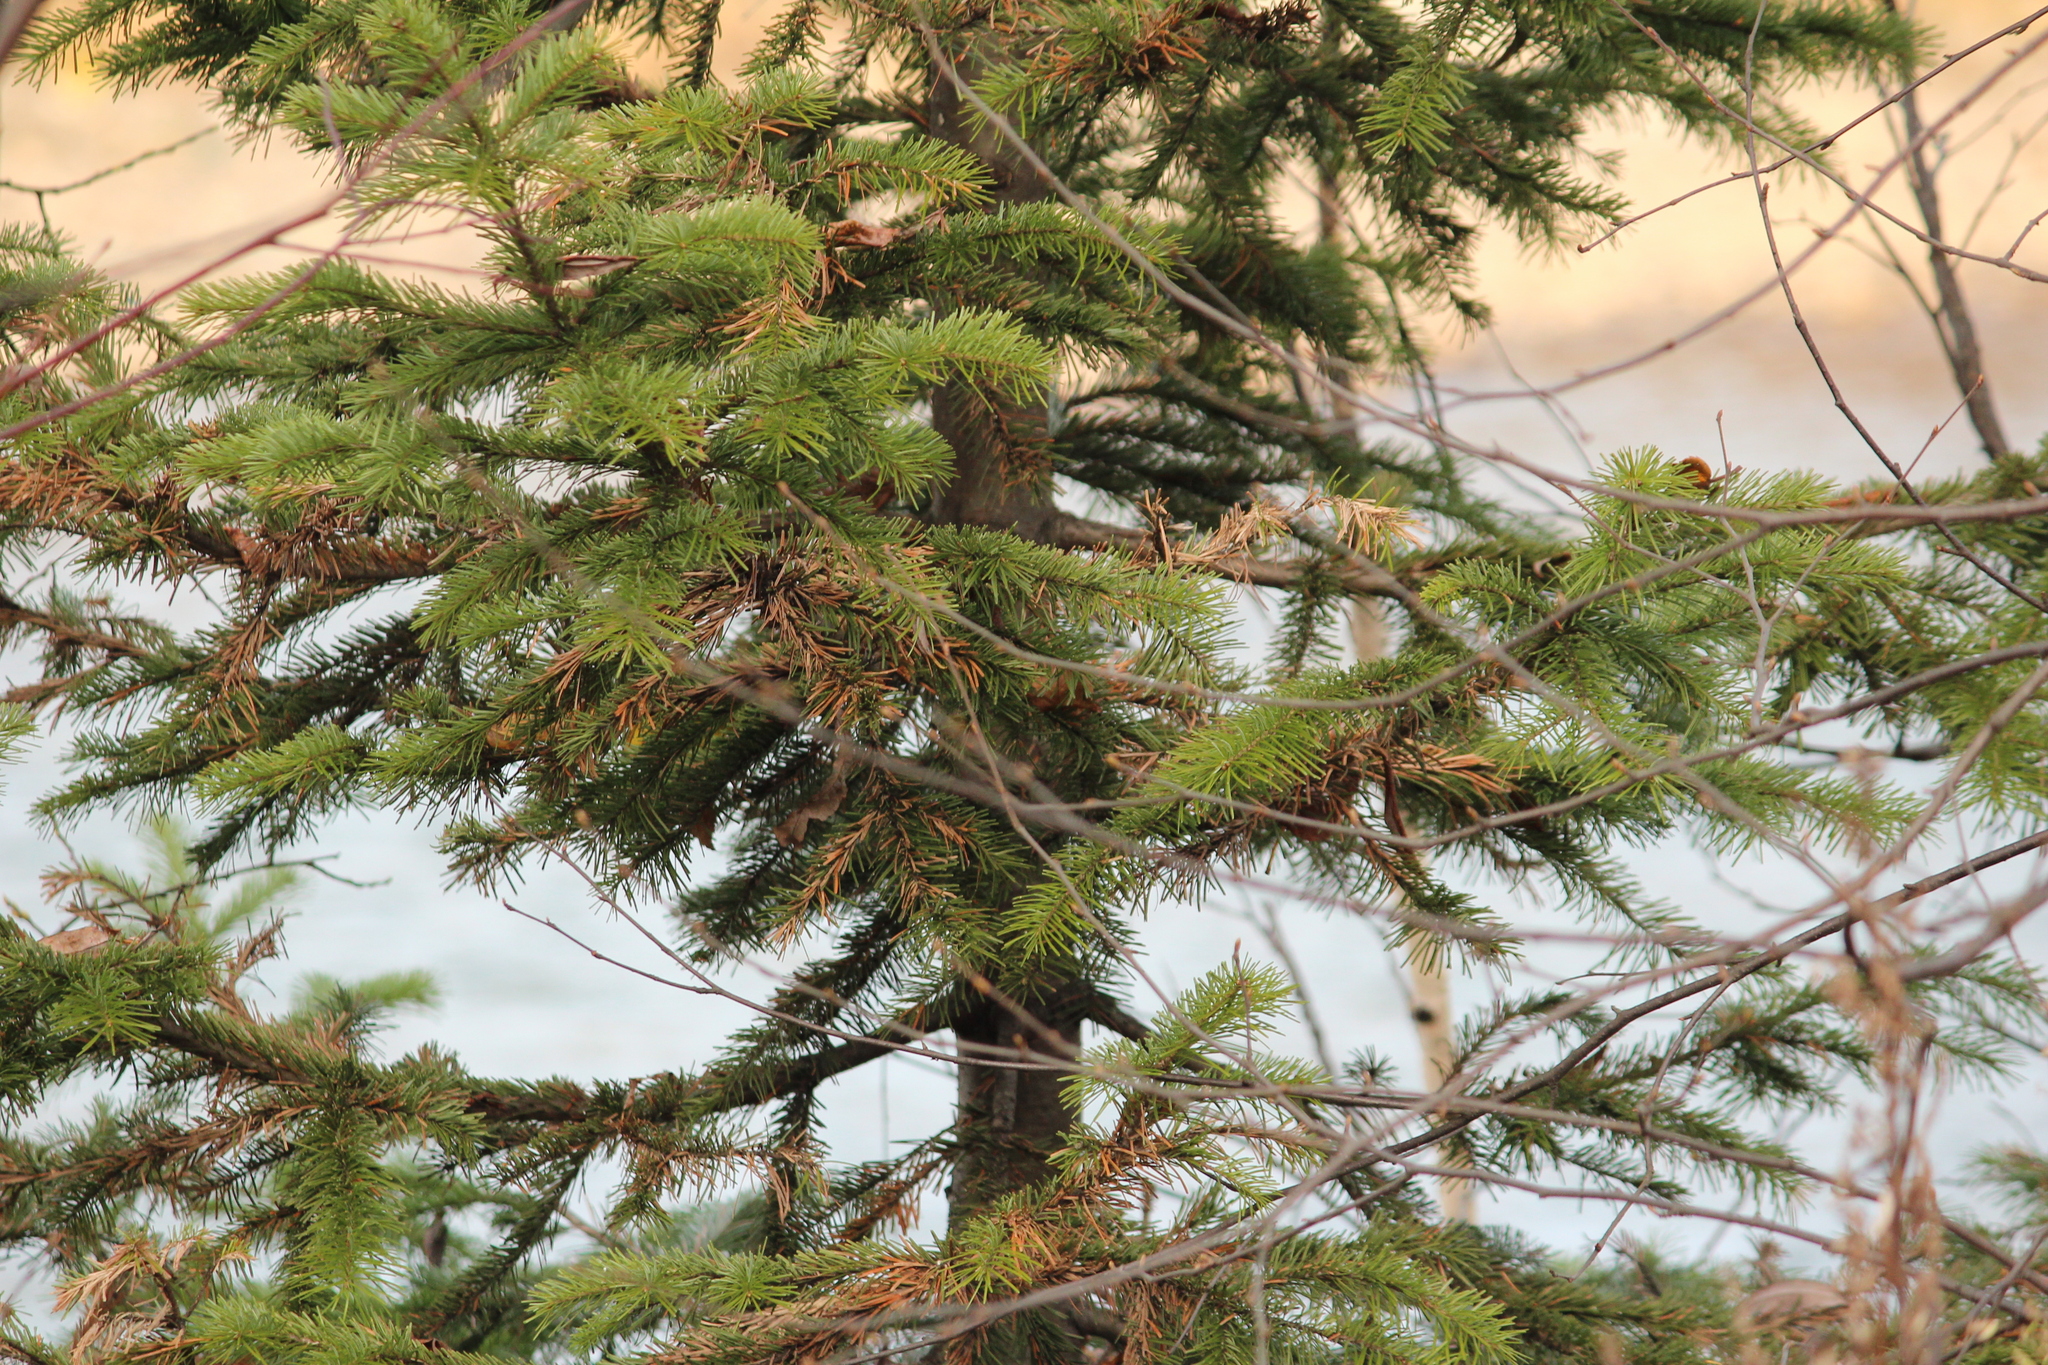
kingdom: Plantae
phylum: Tracheophyta
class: Pinopsida
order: Pinales
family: Pinaceae
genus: Abies
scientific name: Abies sibirica
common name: Siberian fir
